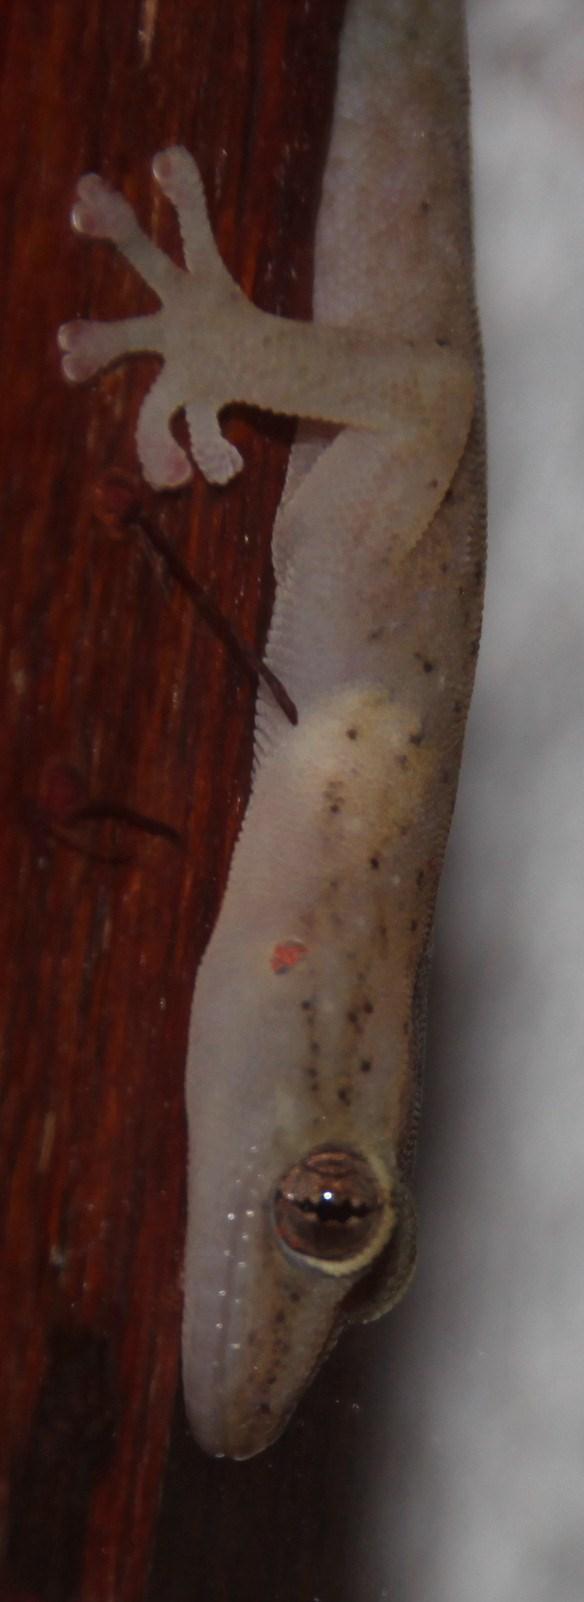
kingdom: Animalia
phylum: Chordata
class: Squamata
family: Gekkonidae
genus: Afrogecko
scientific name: Afrogecko porphyreus
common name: Marbled leaf-toed gecko
